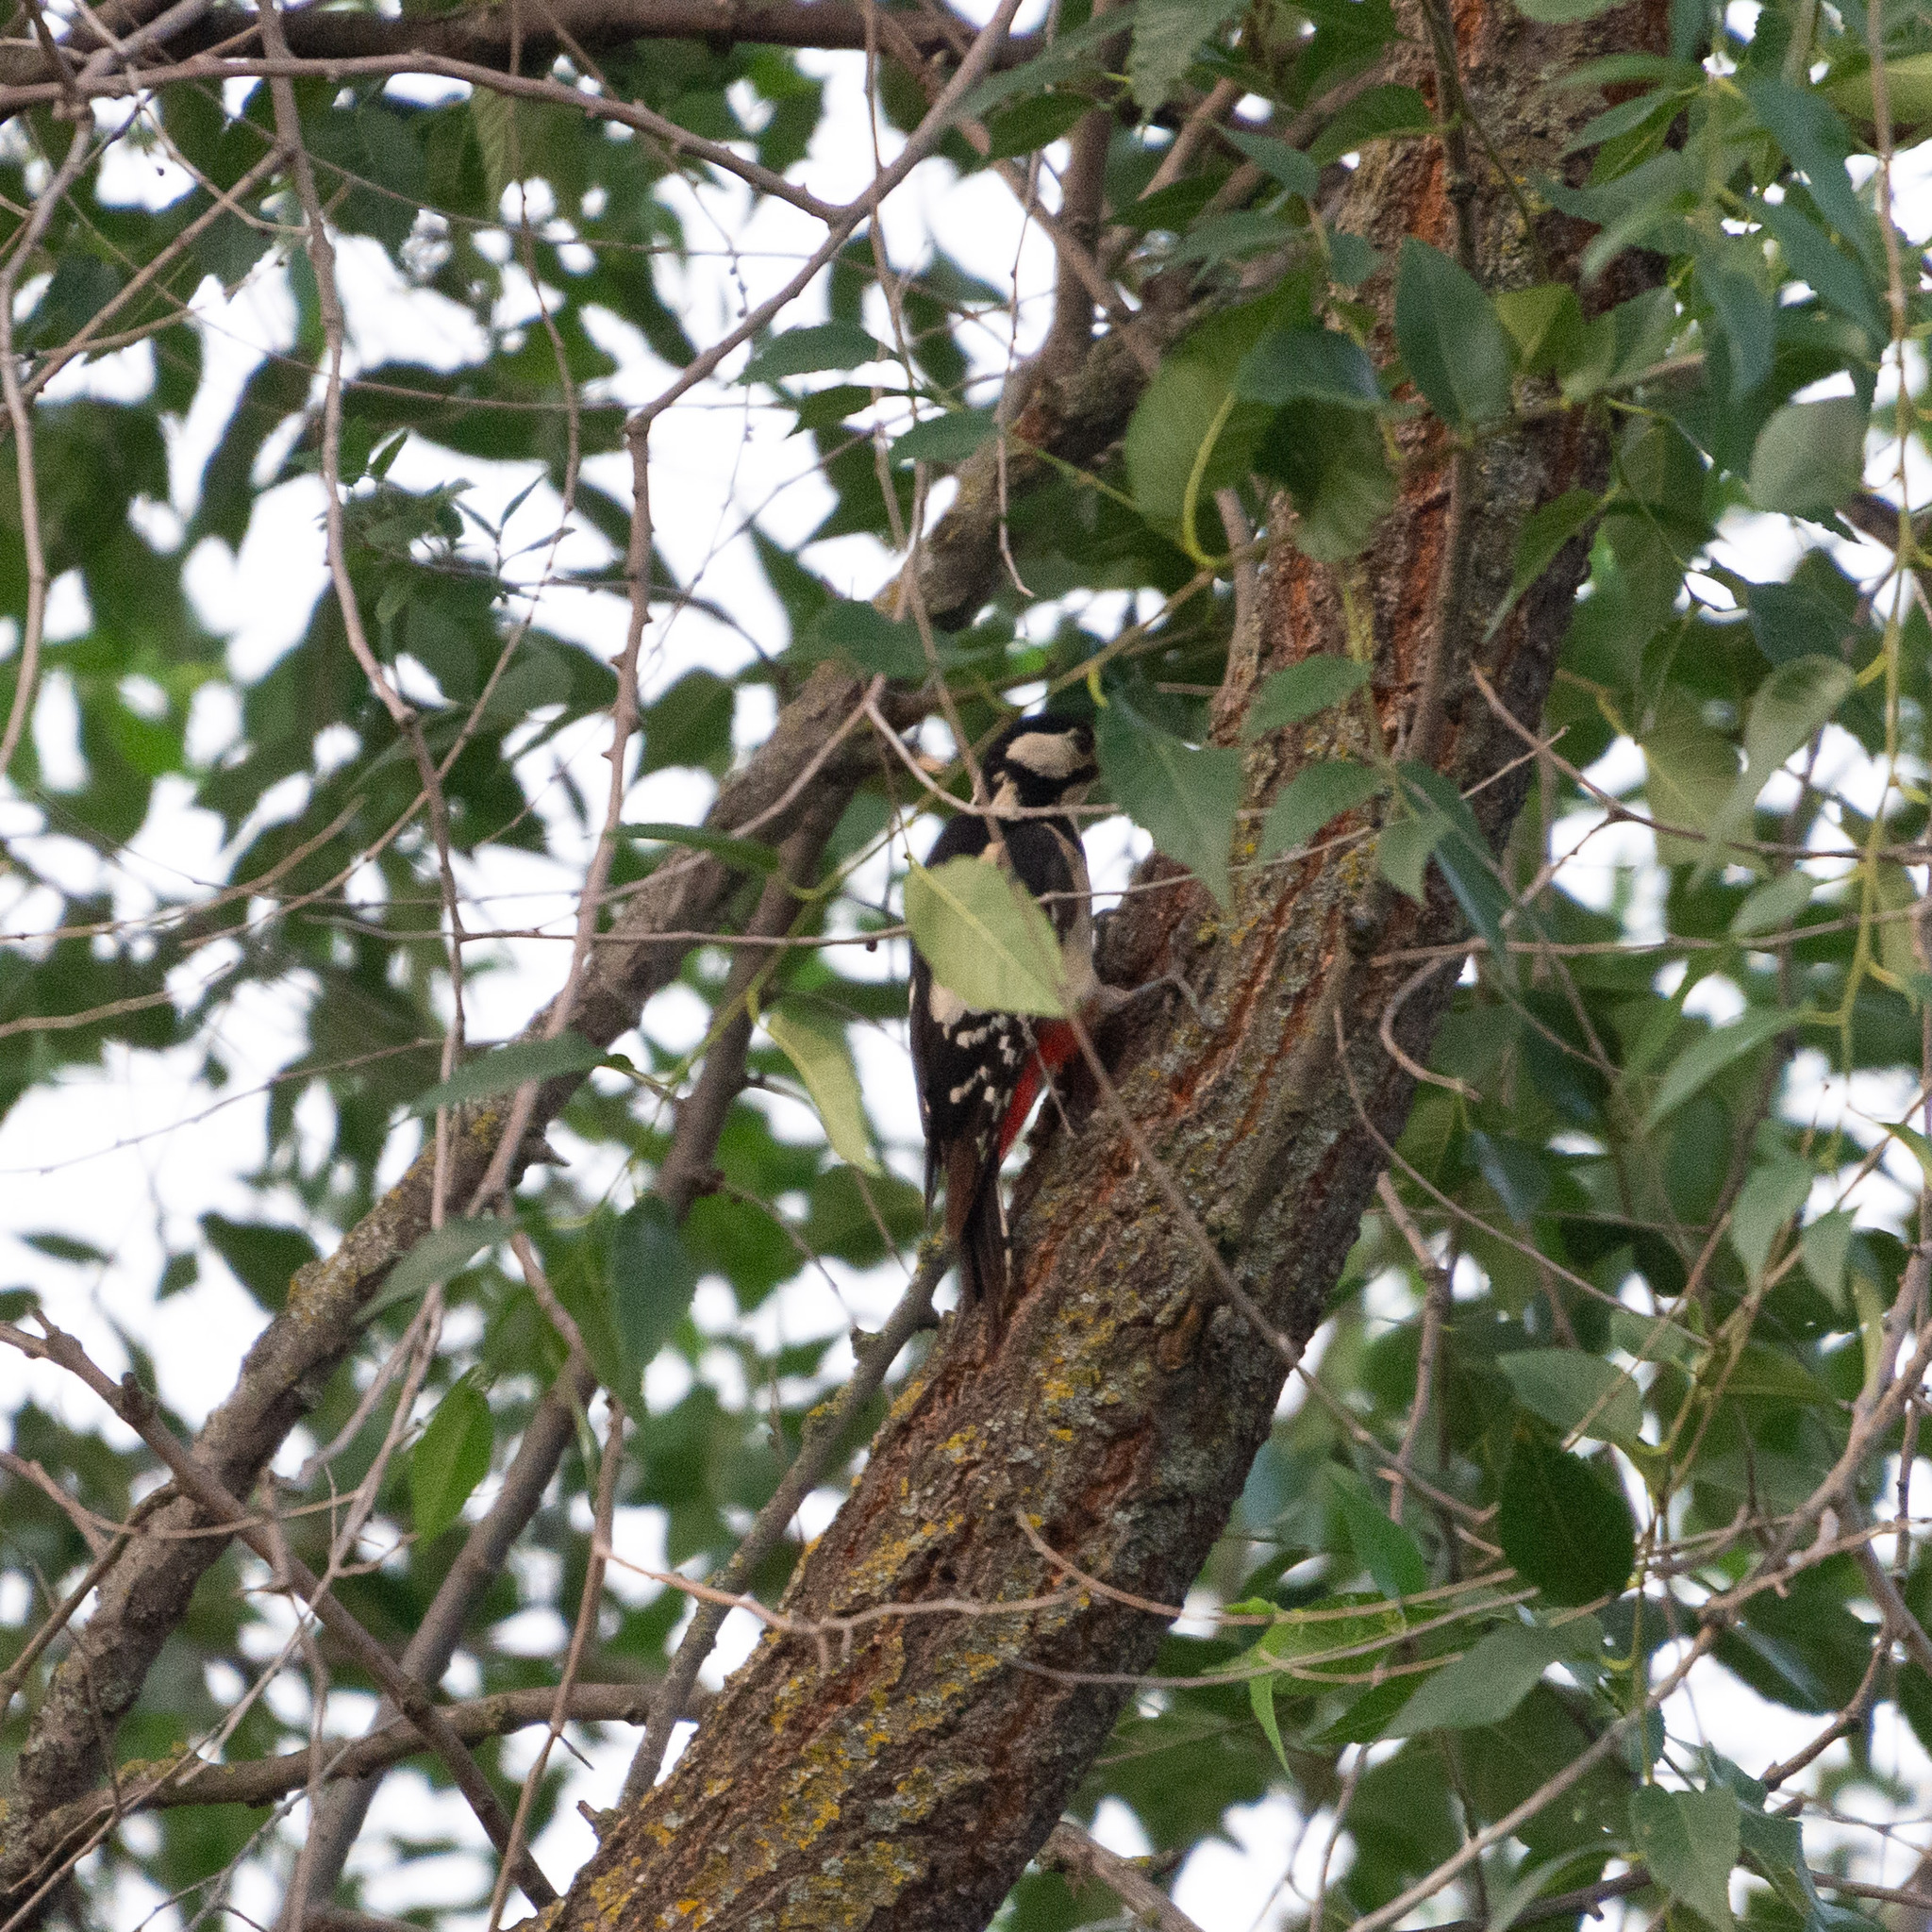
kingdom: Animalia
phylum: Chordata
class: Aves
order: Piciformes
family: Picidae
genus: Dendrocopos
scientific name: Dendrocopos major
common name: Great spotted woodpecker
